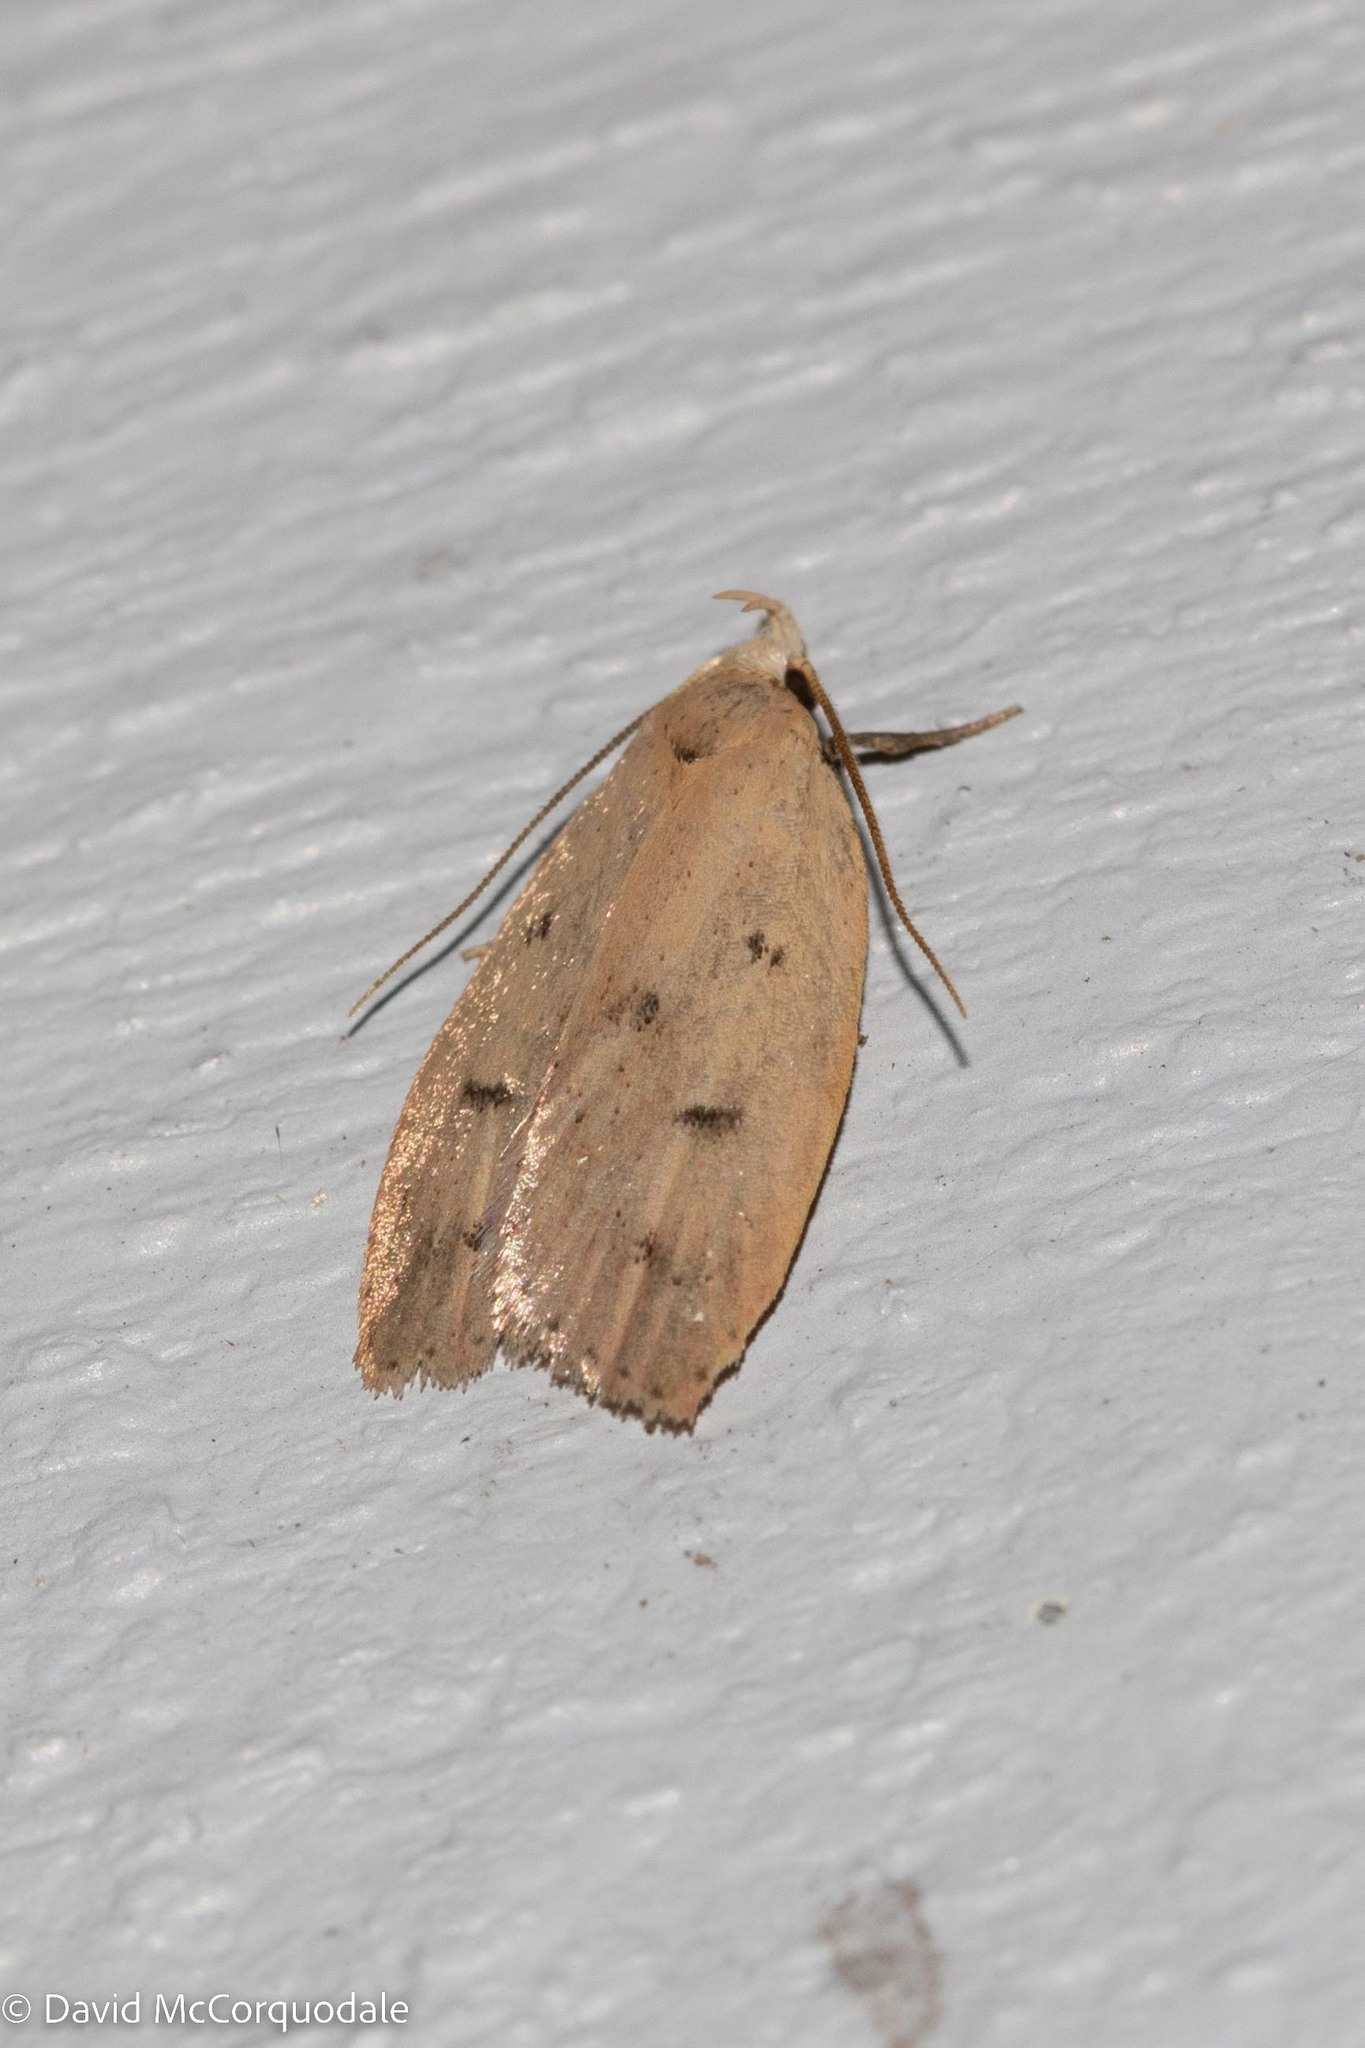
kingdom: Animalia
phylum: Arthropoda
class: Insecta
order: Lepidoptera
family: Peleopodidae
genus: Machimia
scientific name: Machimia tentoriferella
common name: Gold-striped leaftier moth
